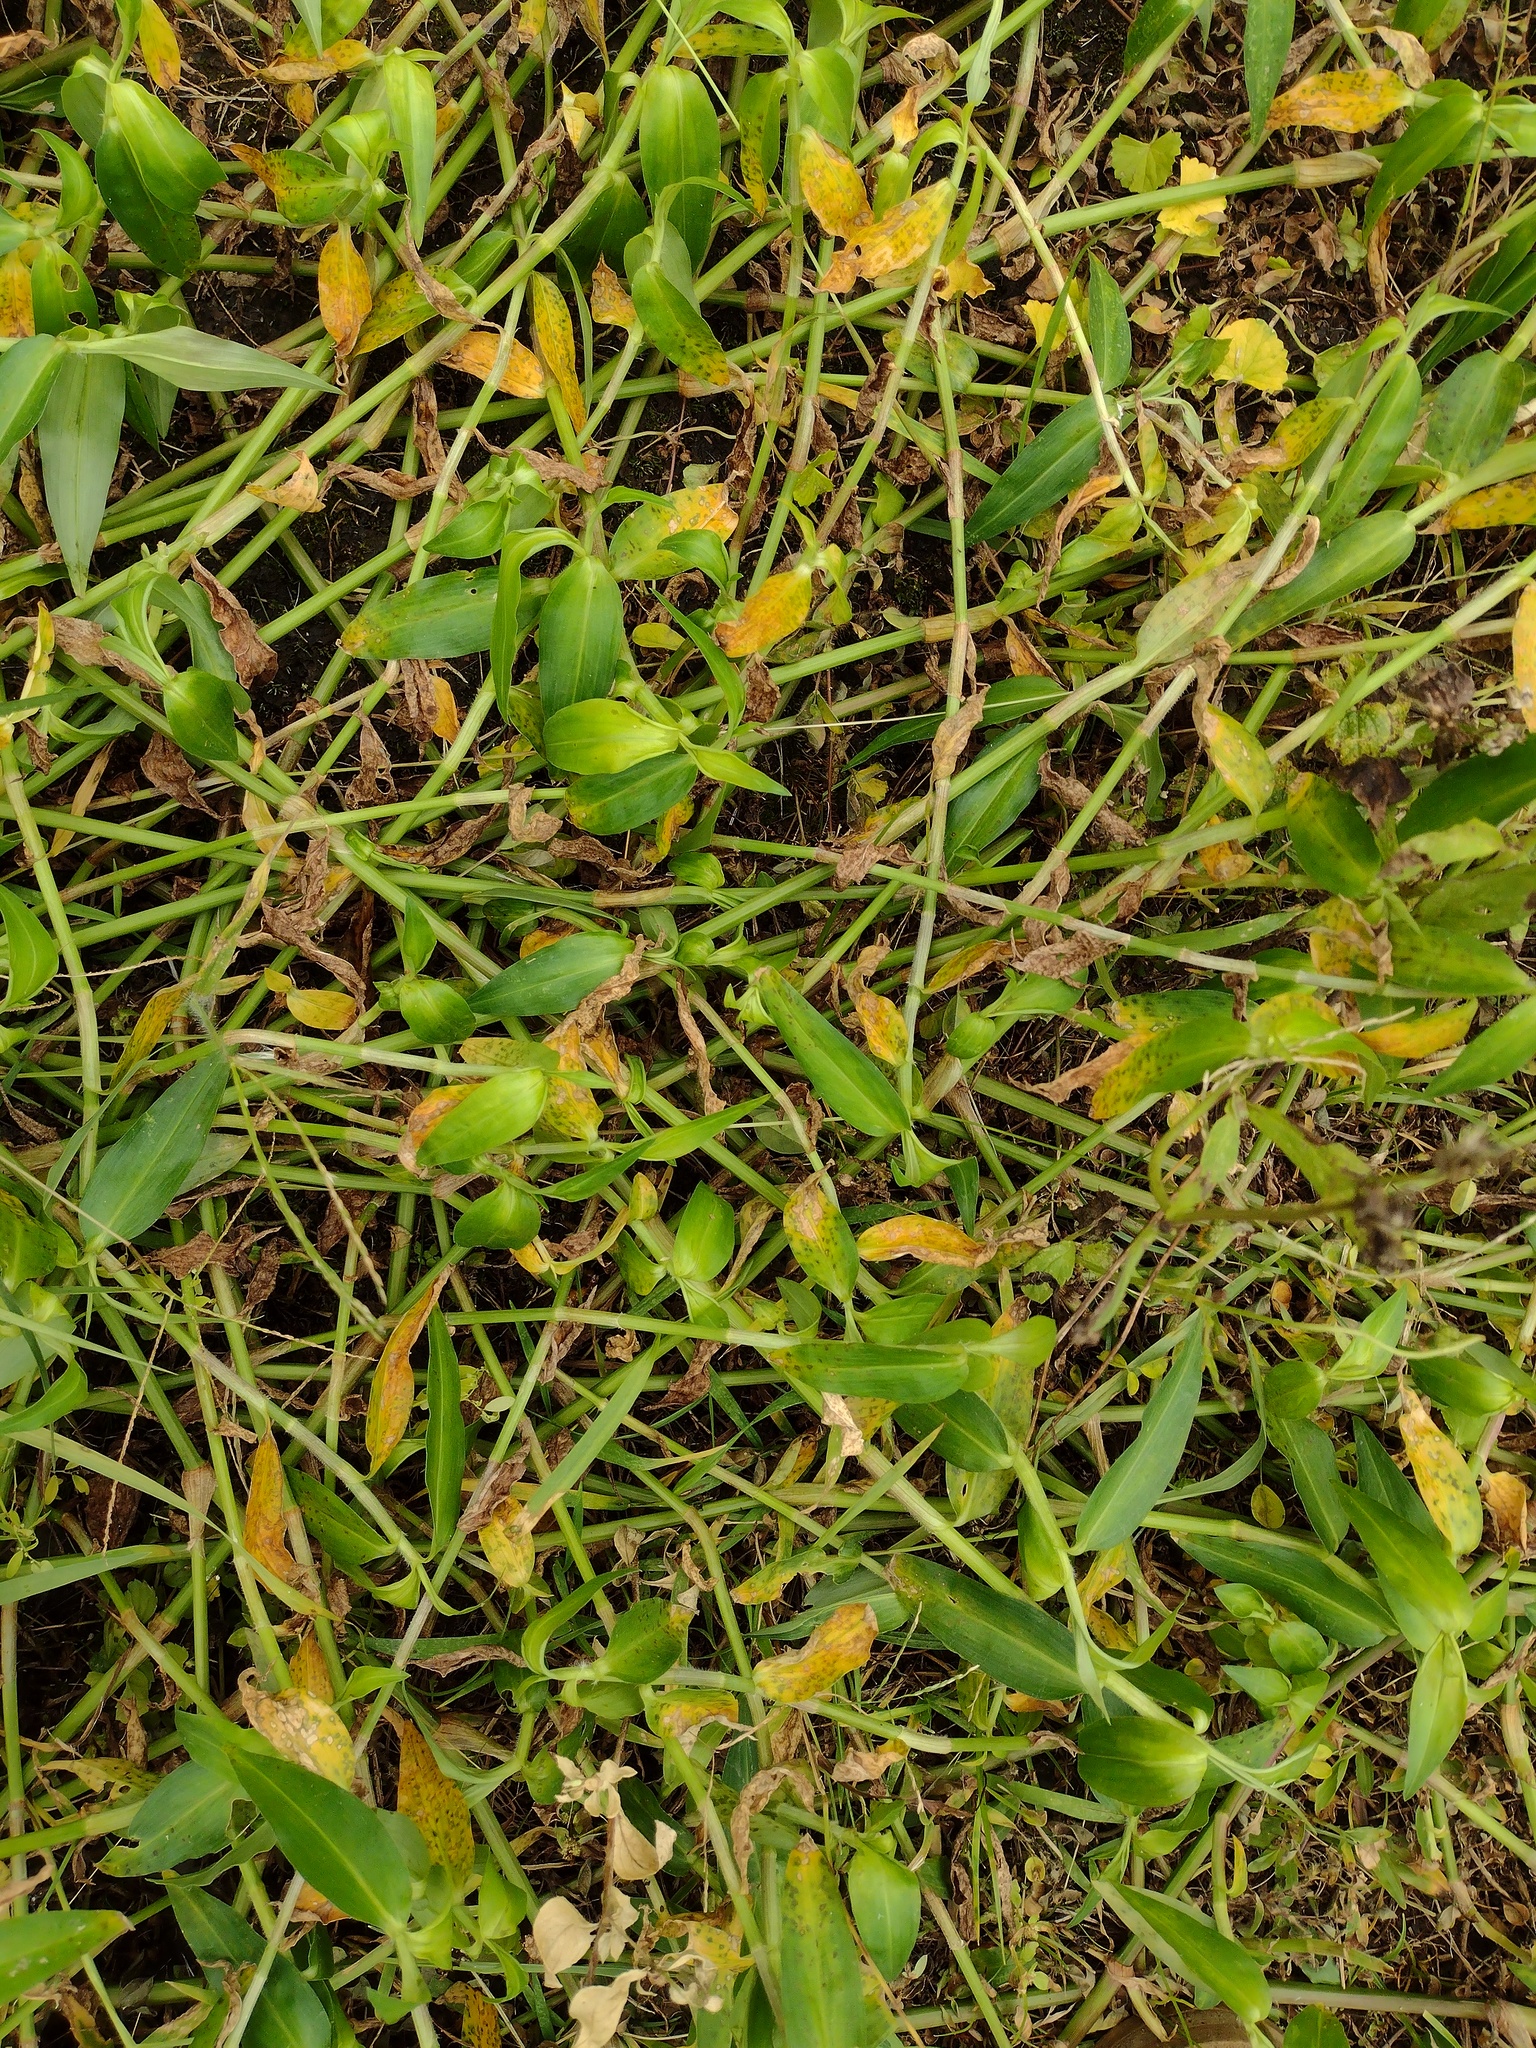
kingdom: Plantae
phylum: Tracheophyta
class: Liliopsida
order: Commelinales
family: Commelinaceae
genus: Commelina
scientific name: Commelina diffusa
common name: Climbing dayflower
